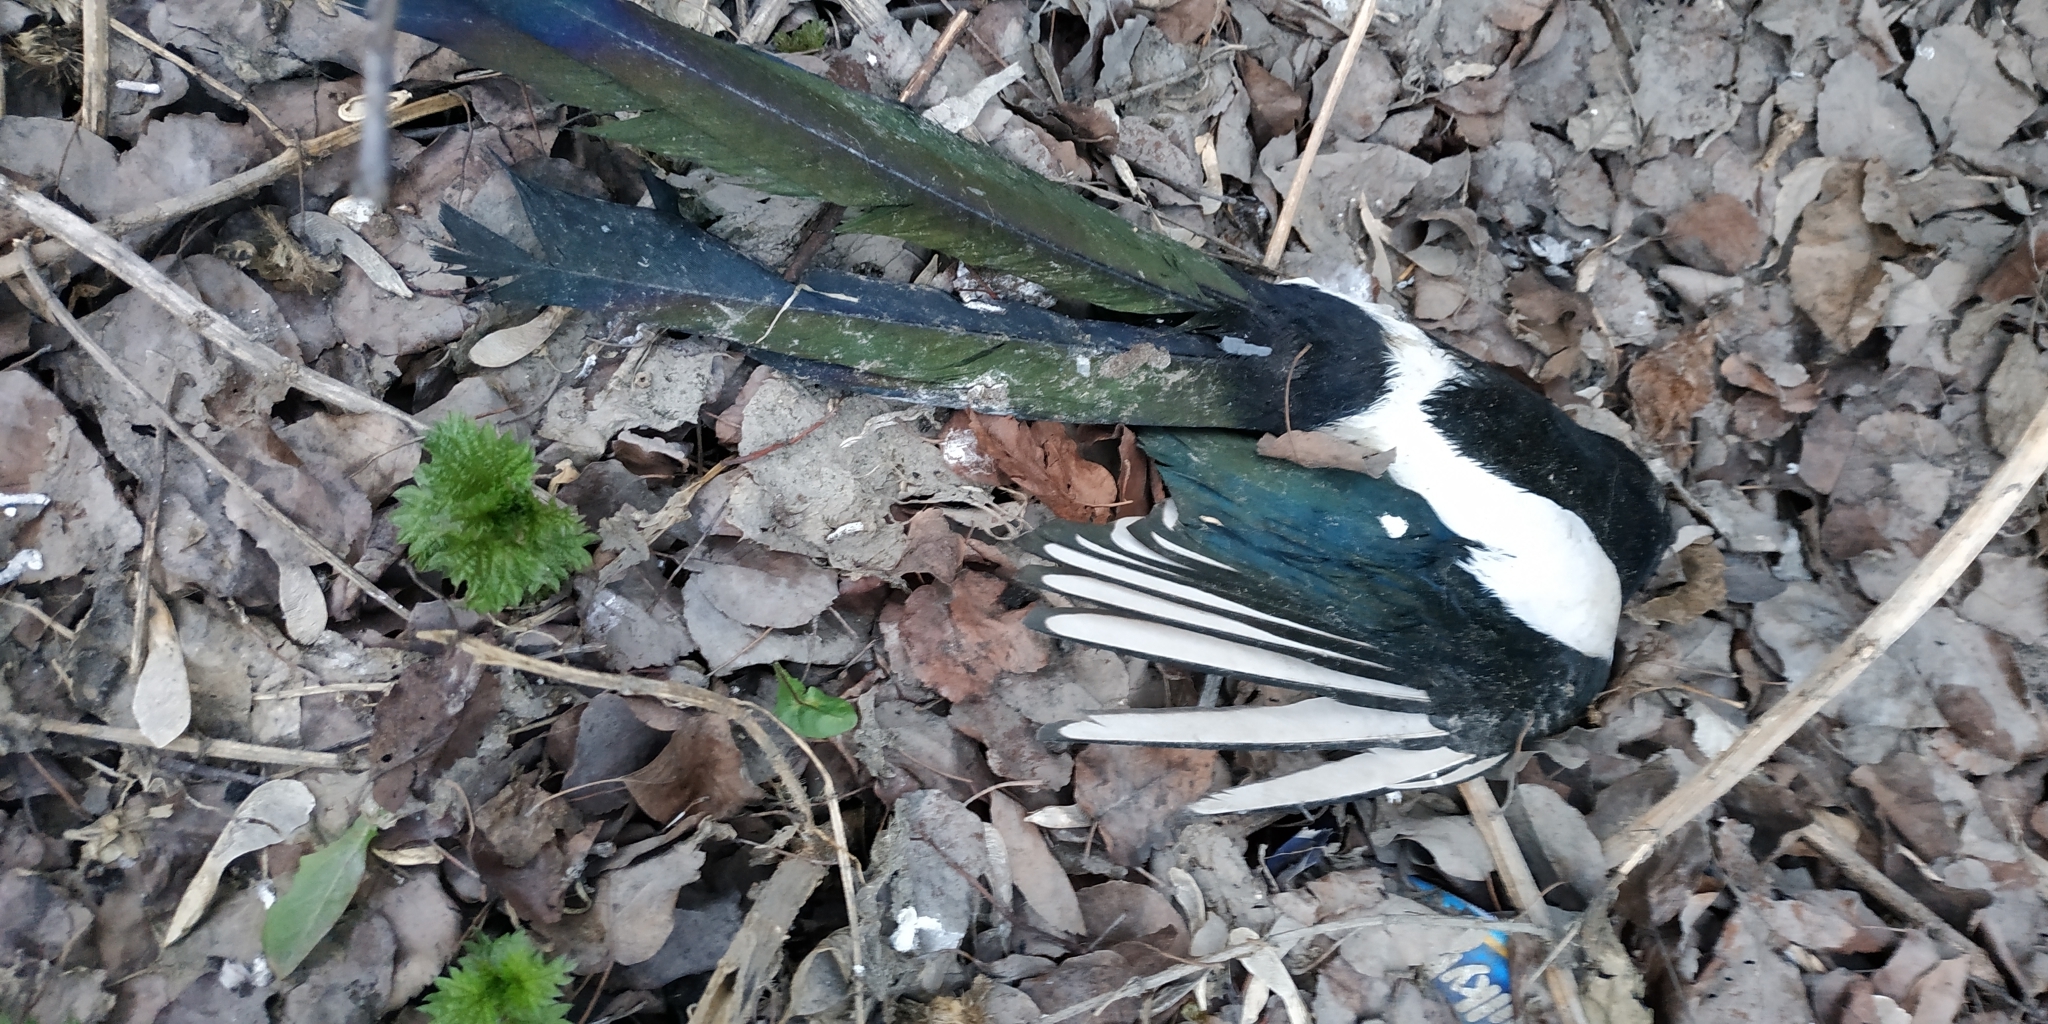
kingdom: Animalia
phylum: Chordata
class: Aves
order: Passeriformes
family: Corvidae
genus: Pica
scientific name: Pica pica
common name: Eurasian magpie
